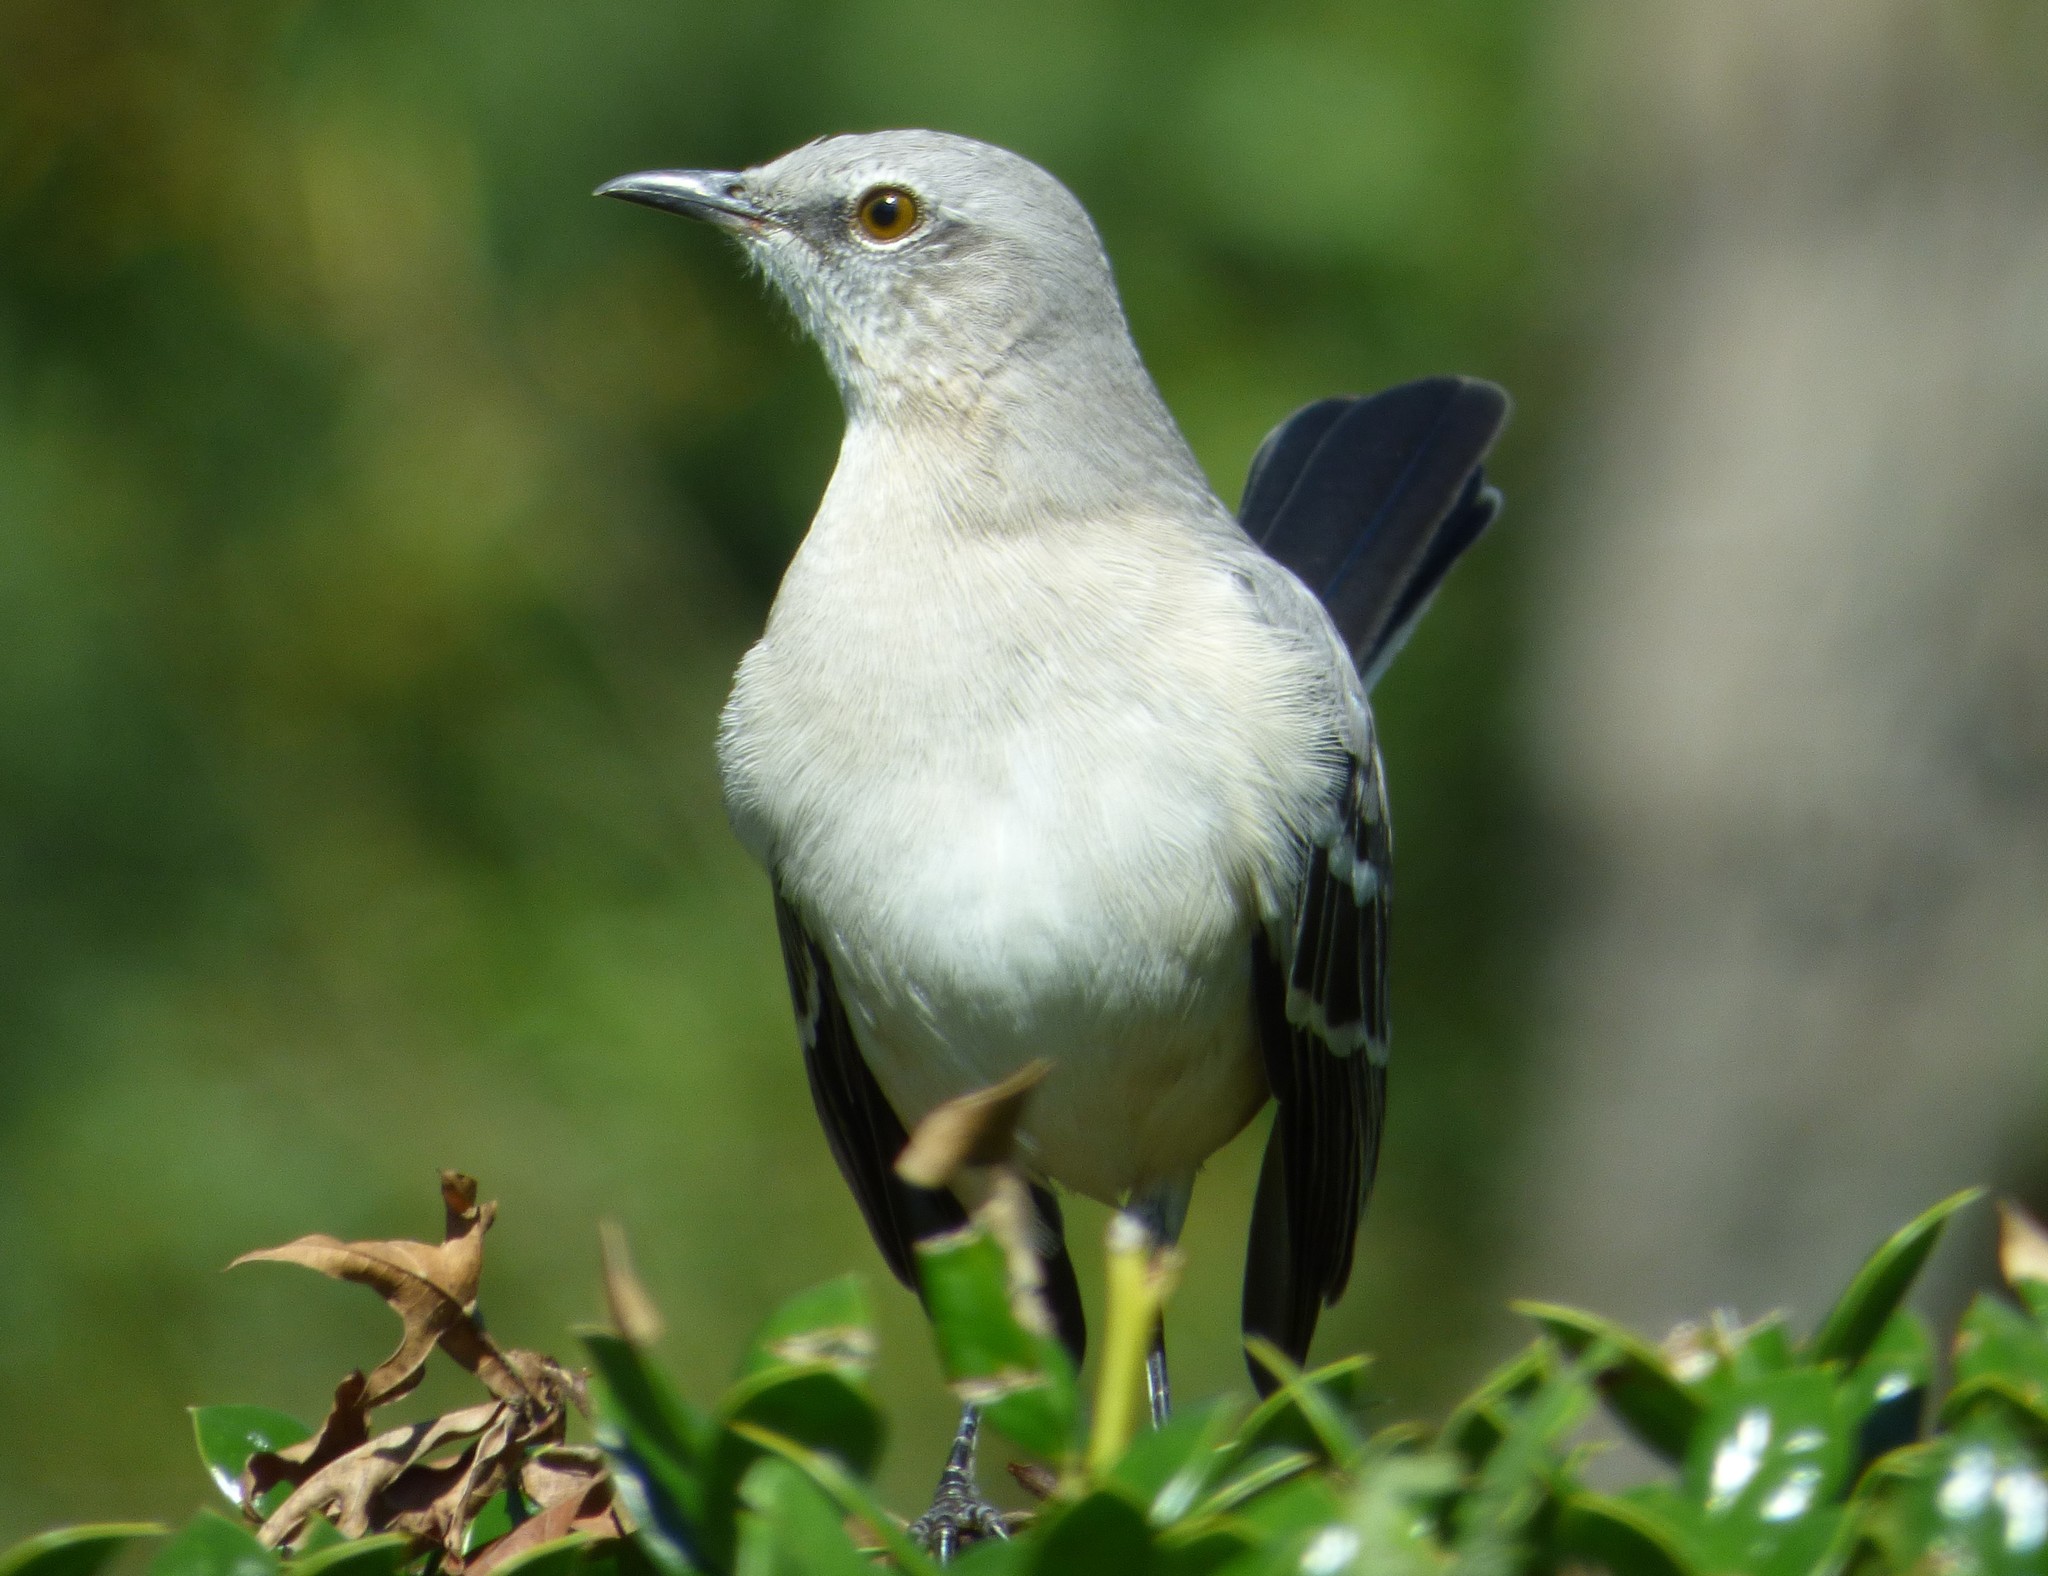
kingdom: Animalia
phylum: Chordata
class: Aves
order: Passeriformes
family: Mimidae
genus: Mimus
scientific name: Mimus polyglottos
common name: Northern mockingbird
